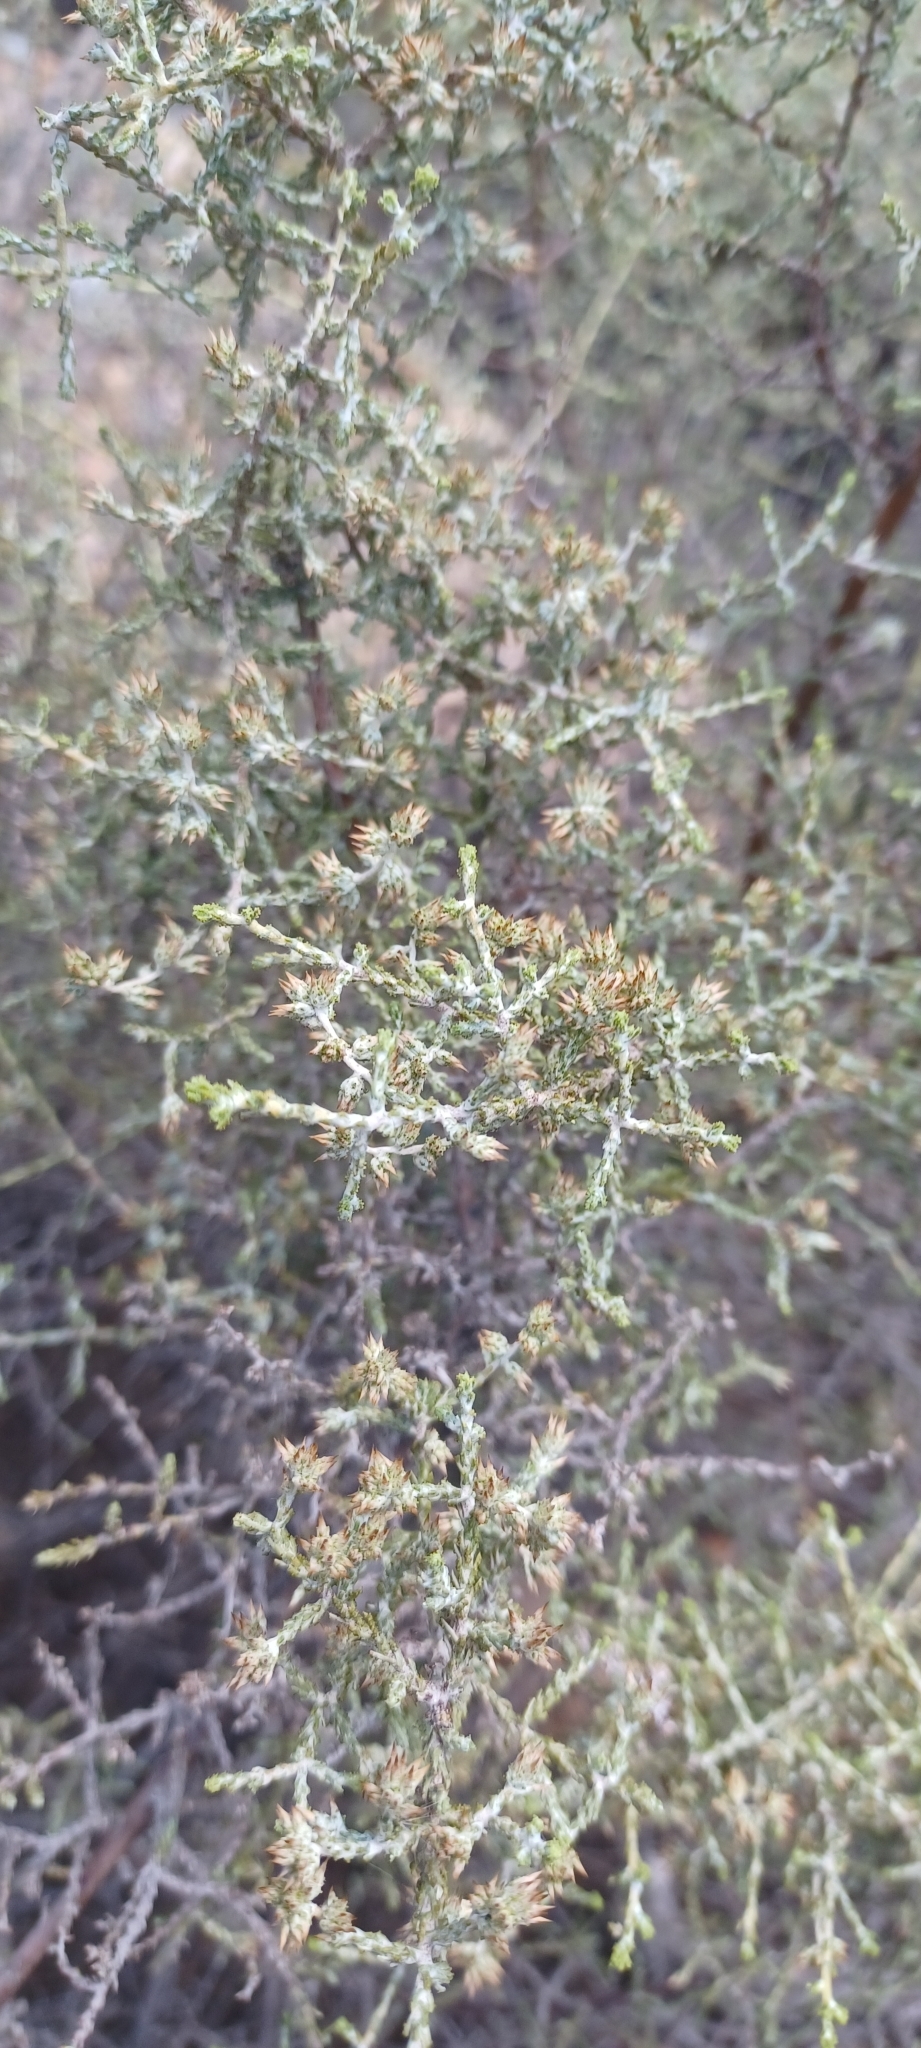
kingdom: Plantae
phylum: Tracheophyta
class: Magnoliopsida
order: Asterales
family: Asteraceae
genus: Myrovernix
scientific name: Myrovernix intricata
